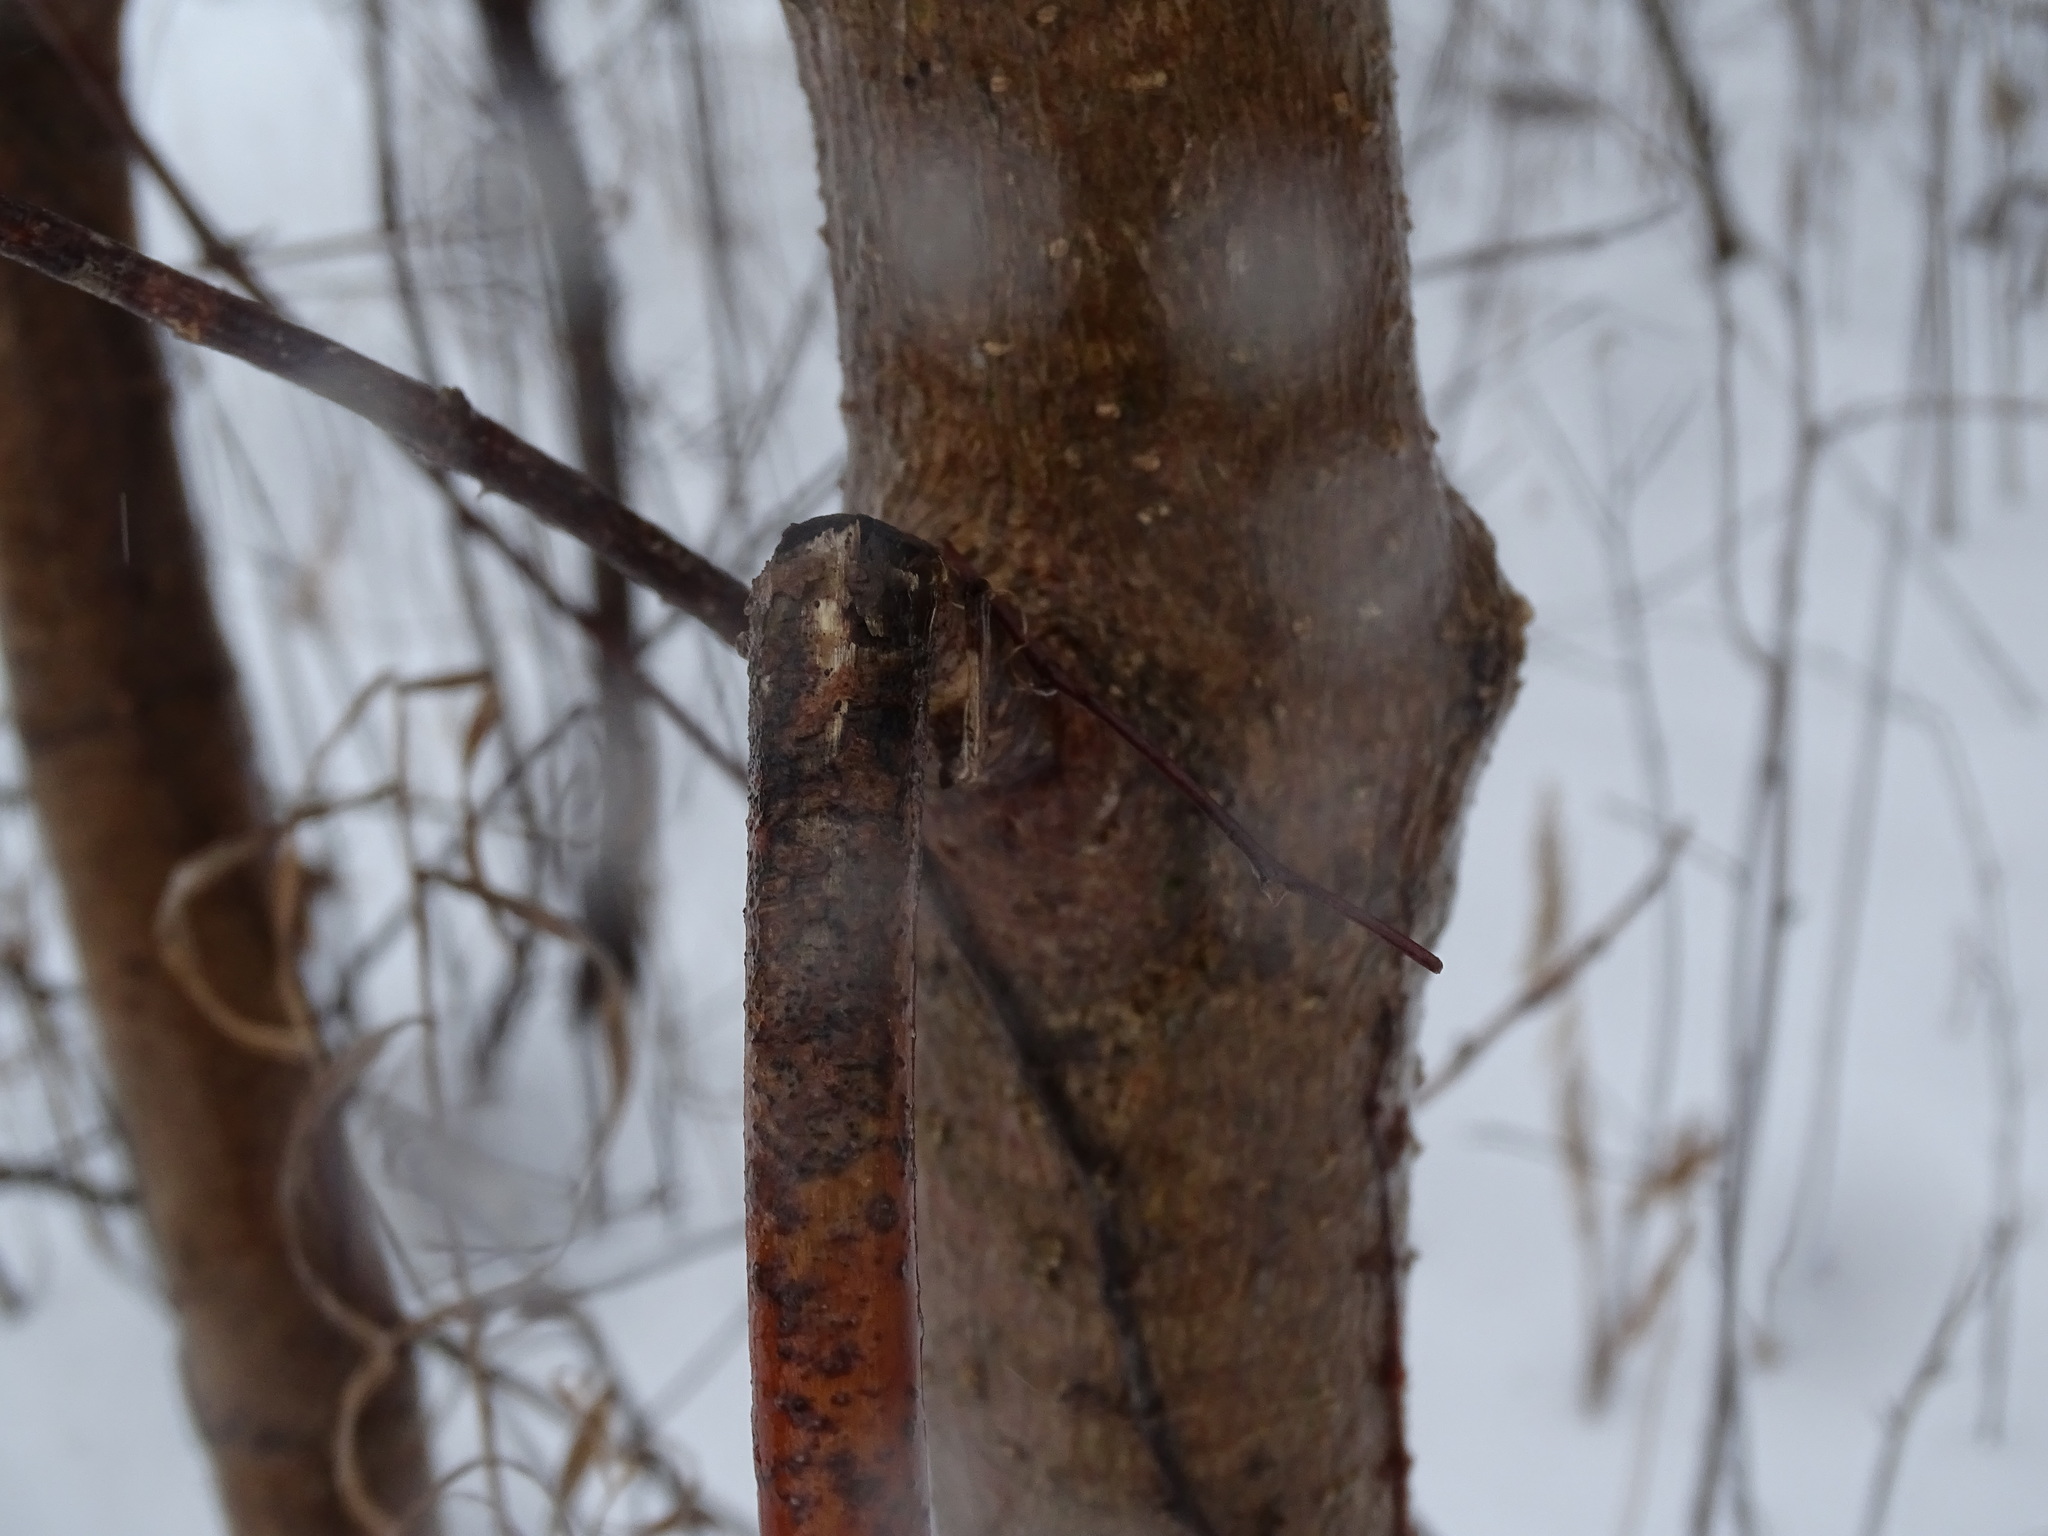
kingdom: Plantae
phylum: Tracheophyta
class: Magnoliopsida
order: Sapindales
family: Sapindaceae
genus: Acer
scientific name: Acer negundo
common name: Ashleaf maple
